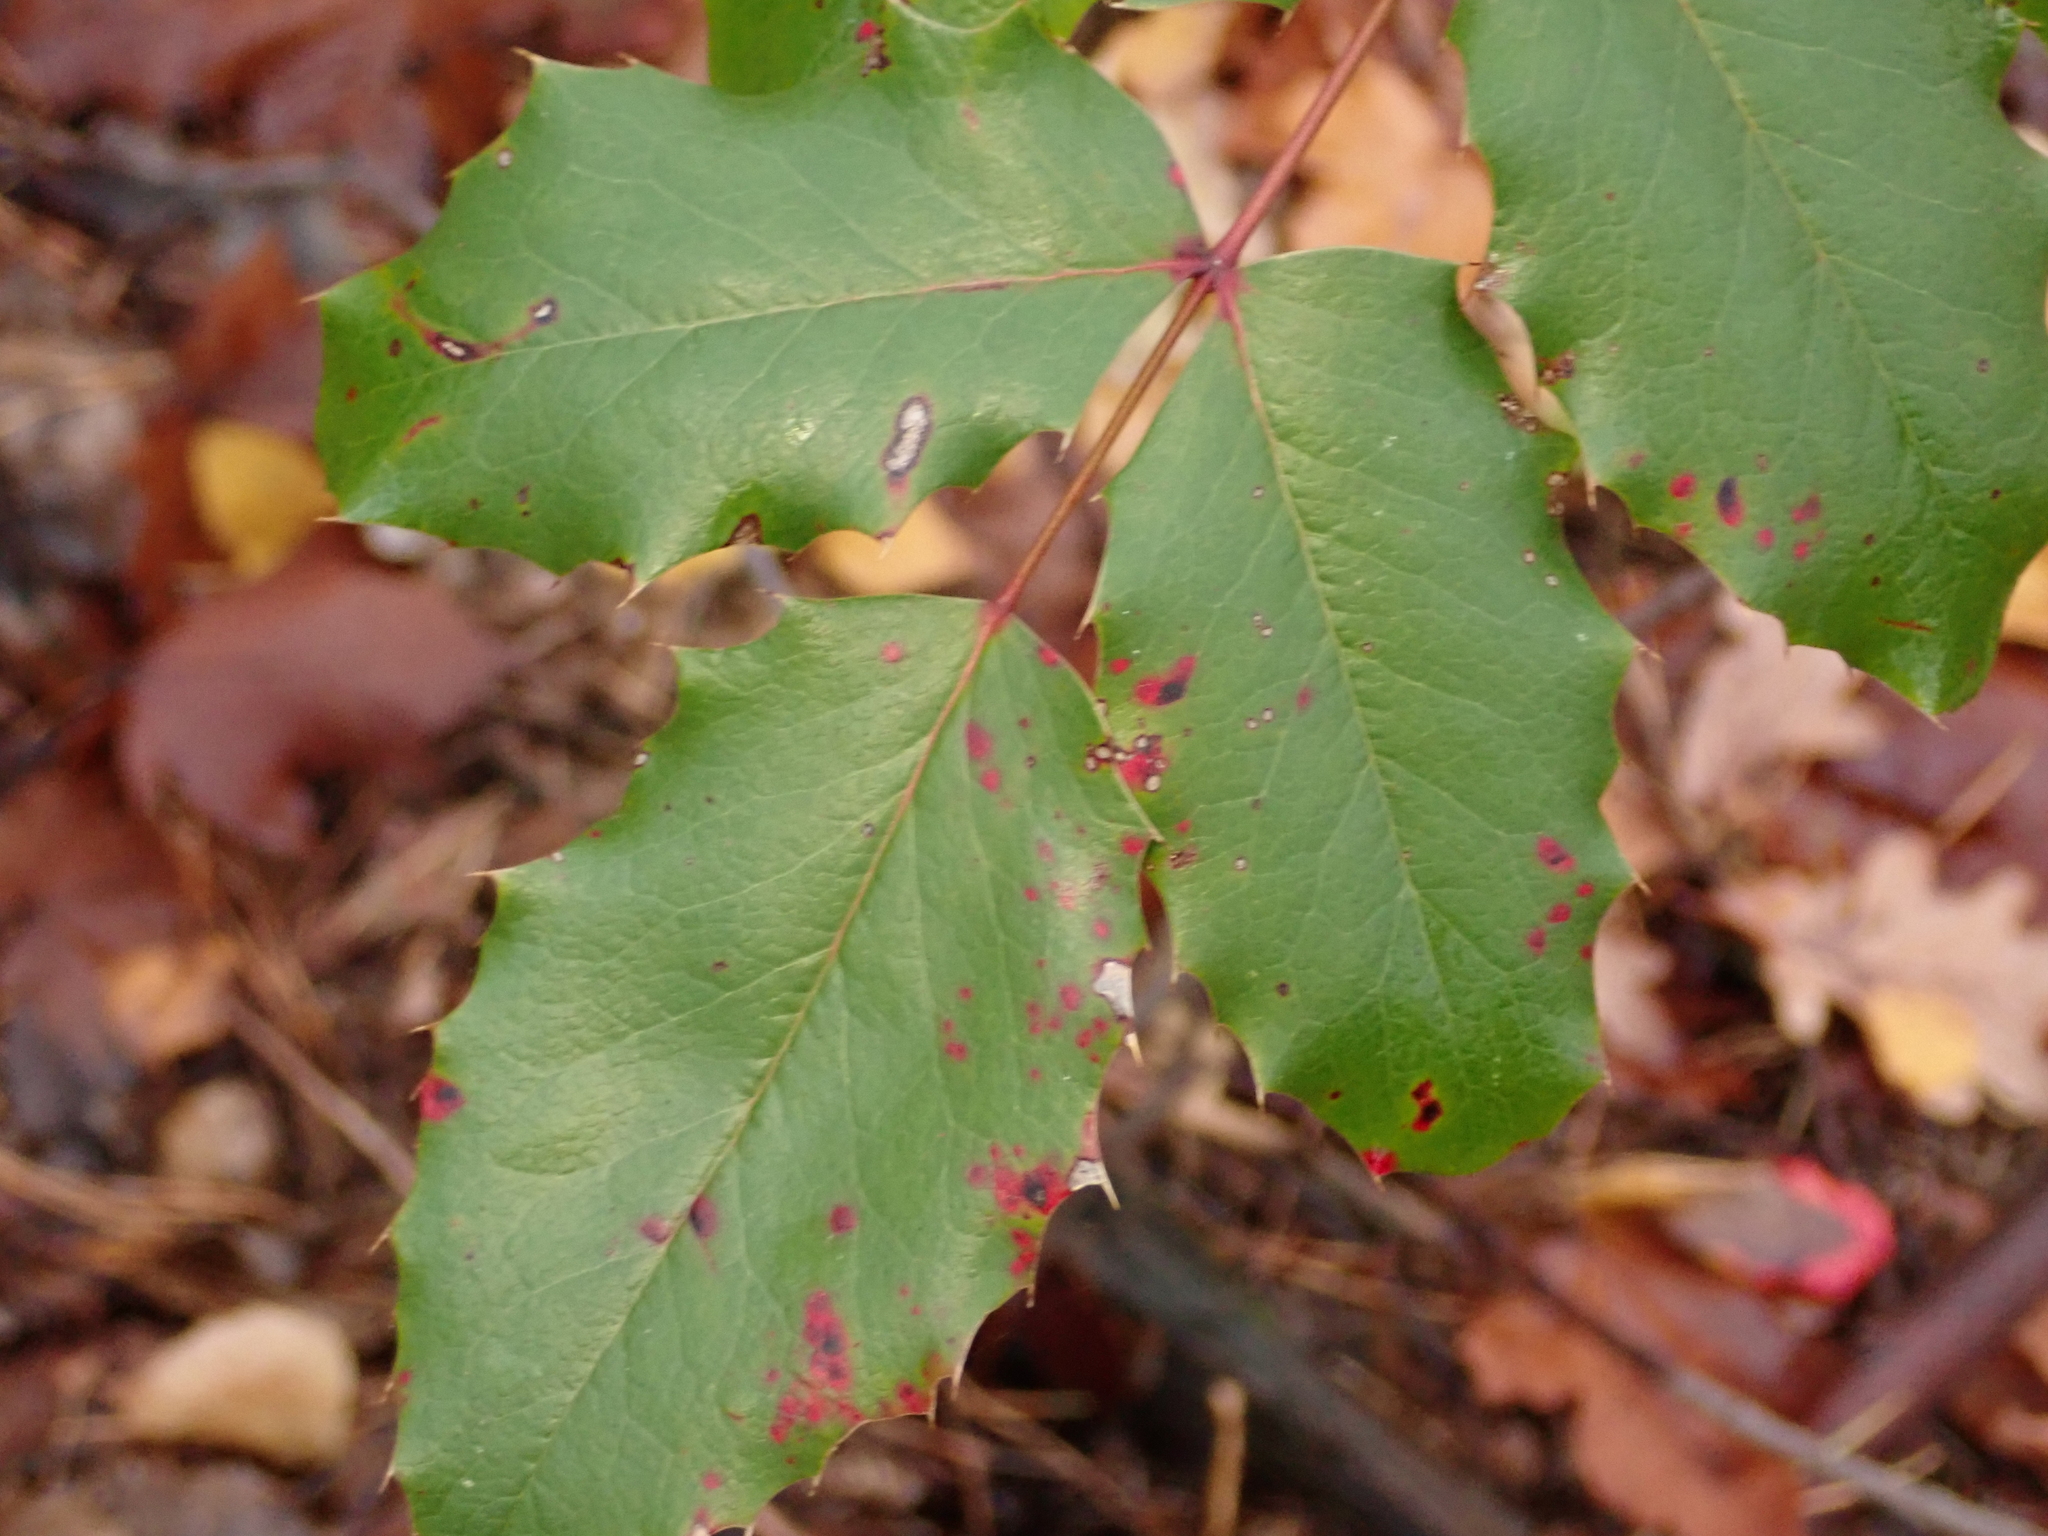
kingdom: Plantae
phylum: Tracheophyta
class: Magnoliopsida
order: Ranunculales
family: Berberidaceae
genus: Mahonia
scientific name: Mahonia aquifolium
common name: Oregon-grape
